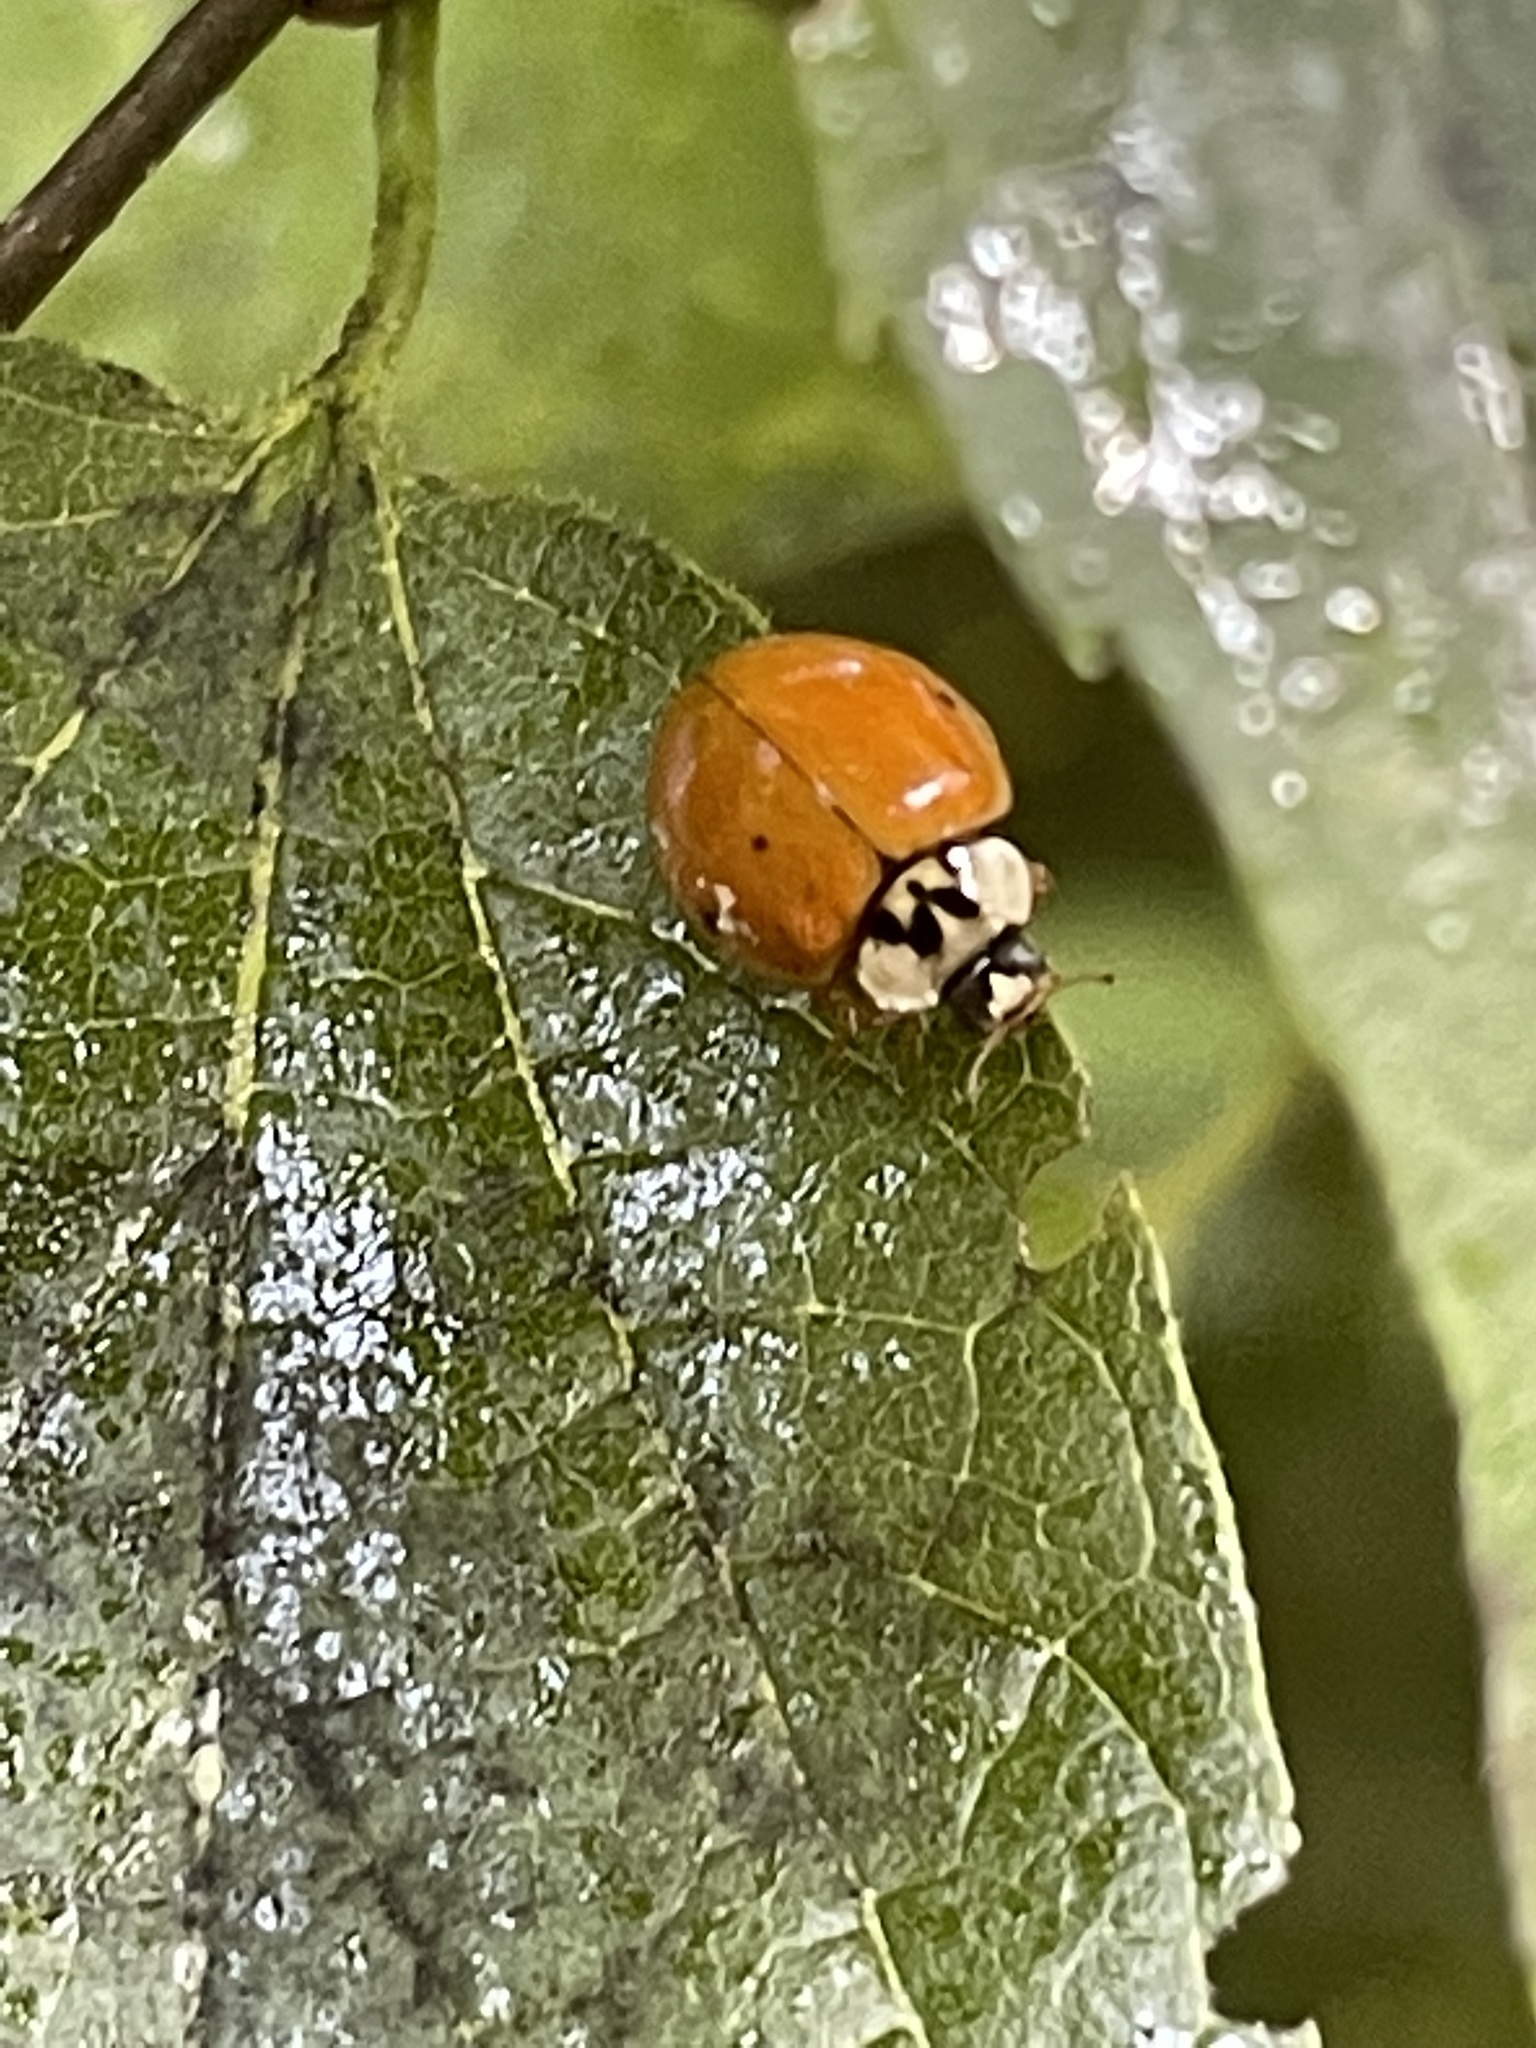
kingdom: Animalia
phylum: Arthropoda
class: Insecta
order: Coleoptera
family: Coccinellidae
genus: Harmonia
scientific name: Harmonia axyridis
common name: Harlequin ladybird
